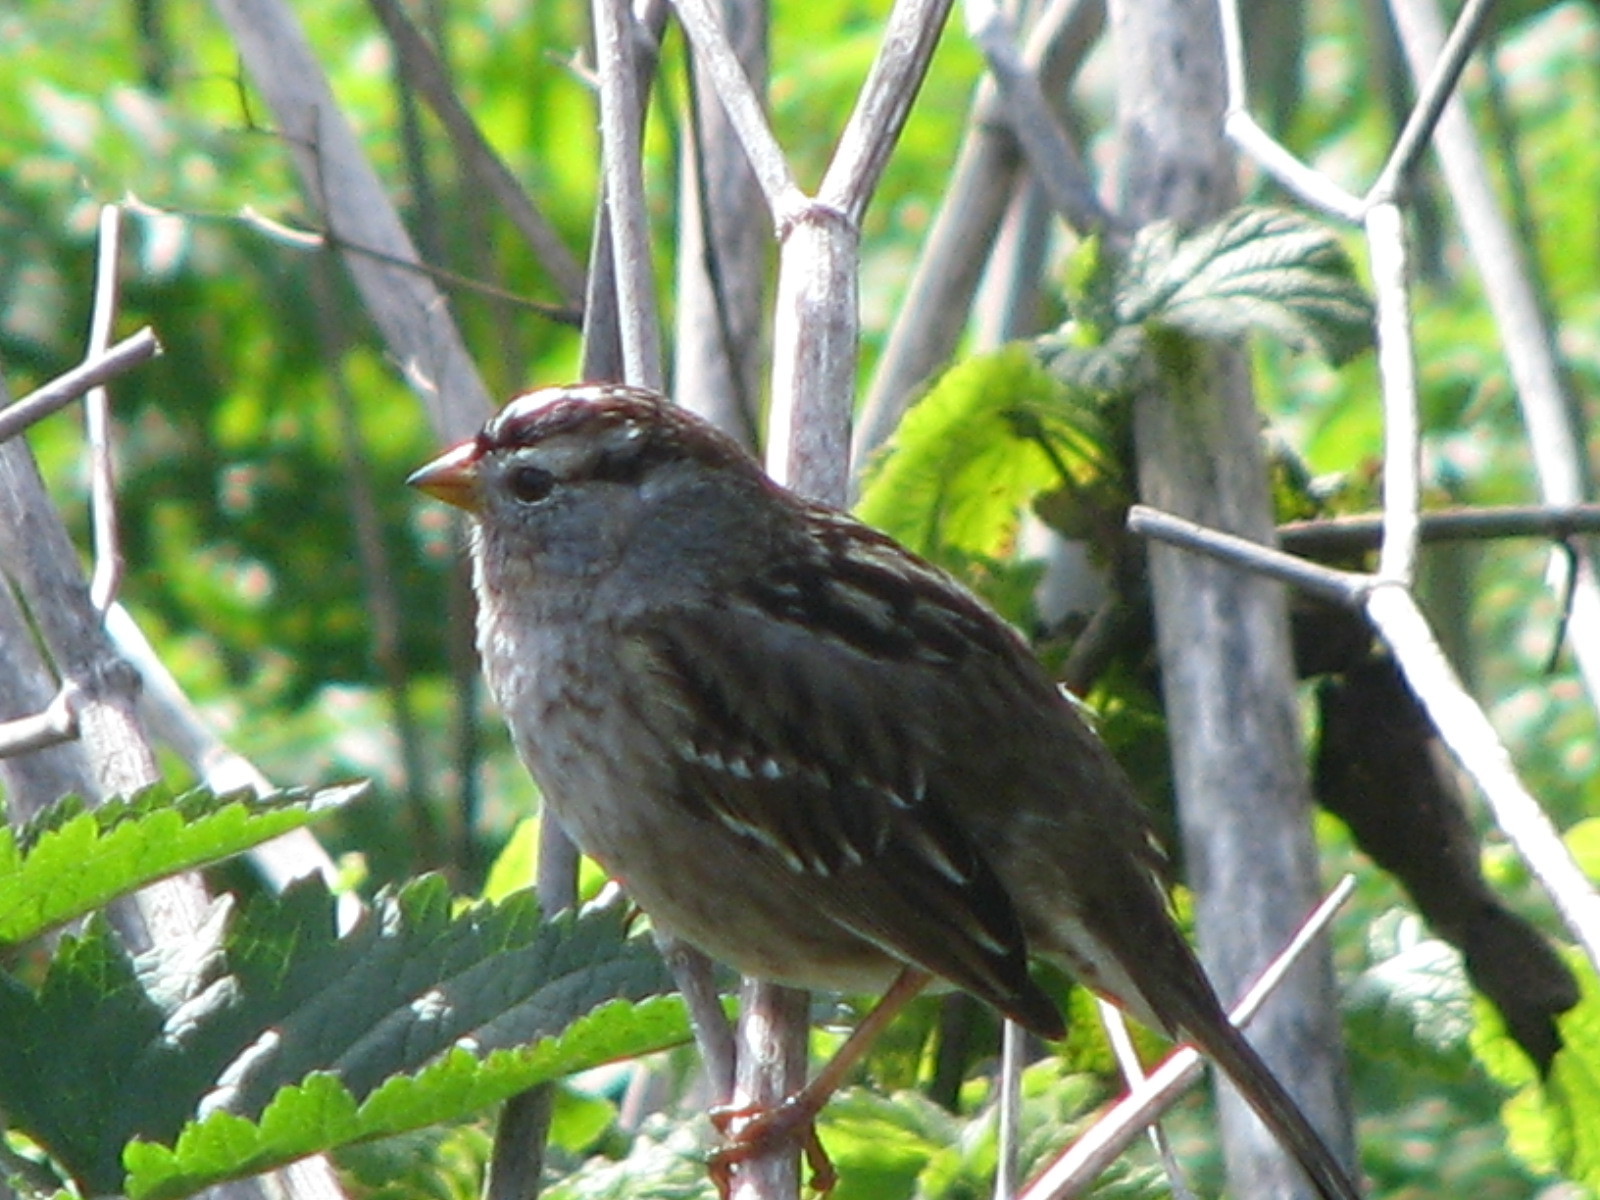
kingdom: Animalia
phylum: Chordata
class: Aves
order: Passeriformes
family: Passerellidae
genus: Zonotrichia
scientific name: Zonotrichia leucophrys
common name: White-crowned sparrow
